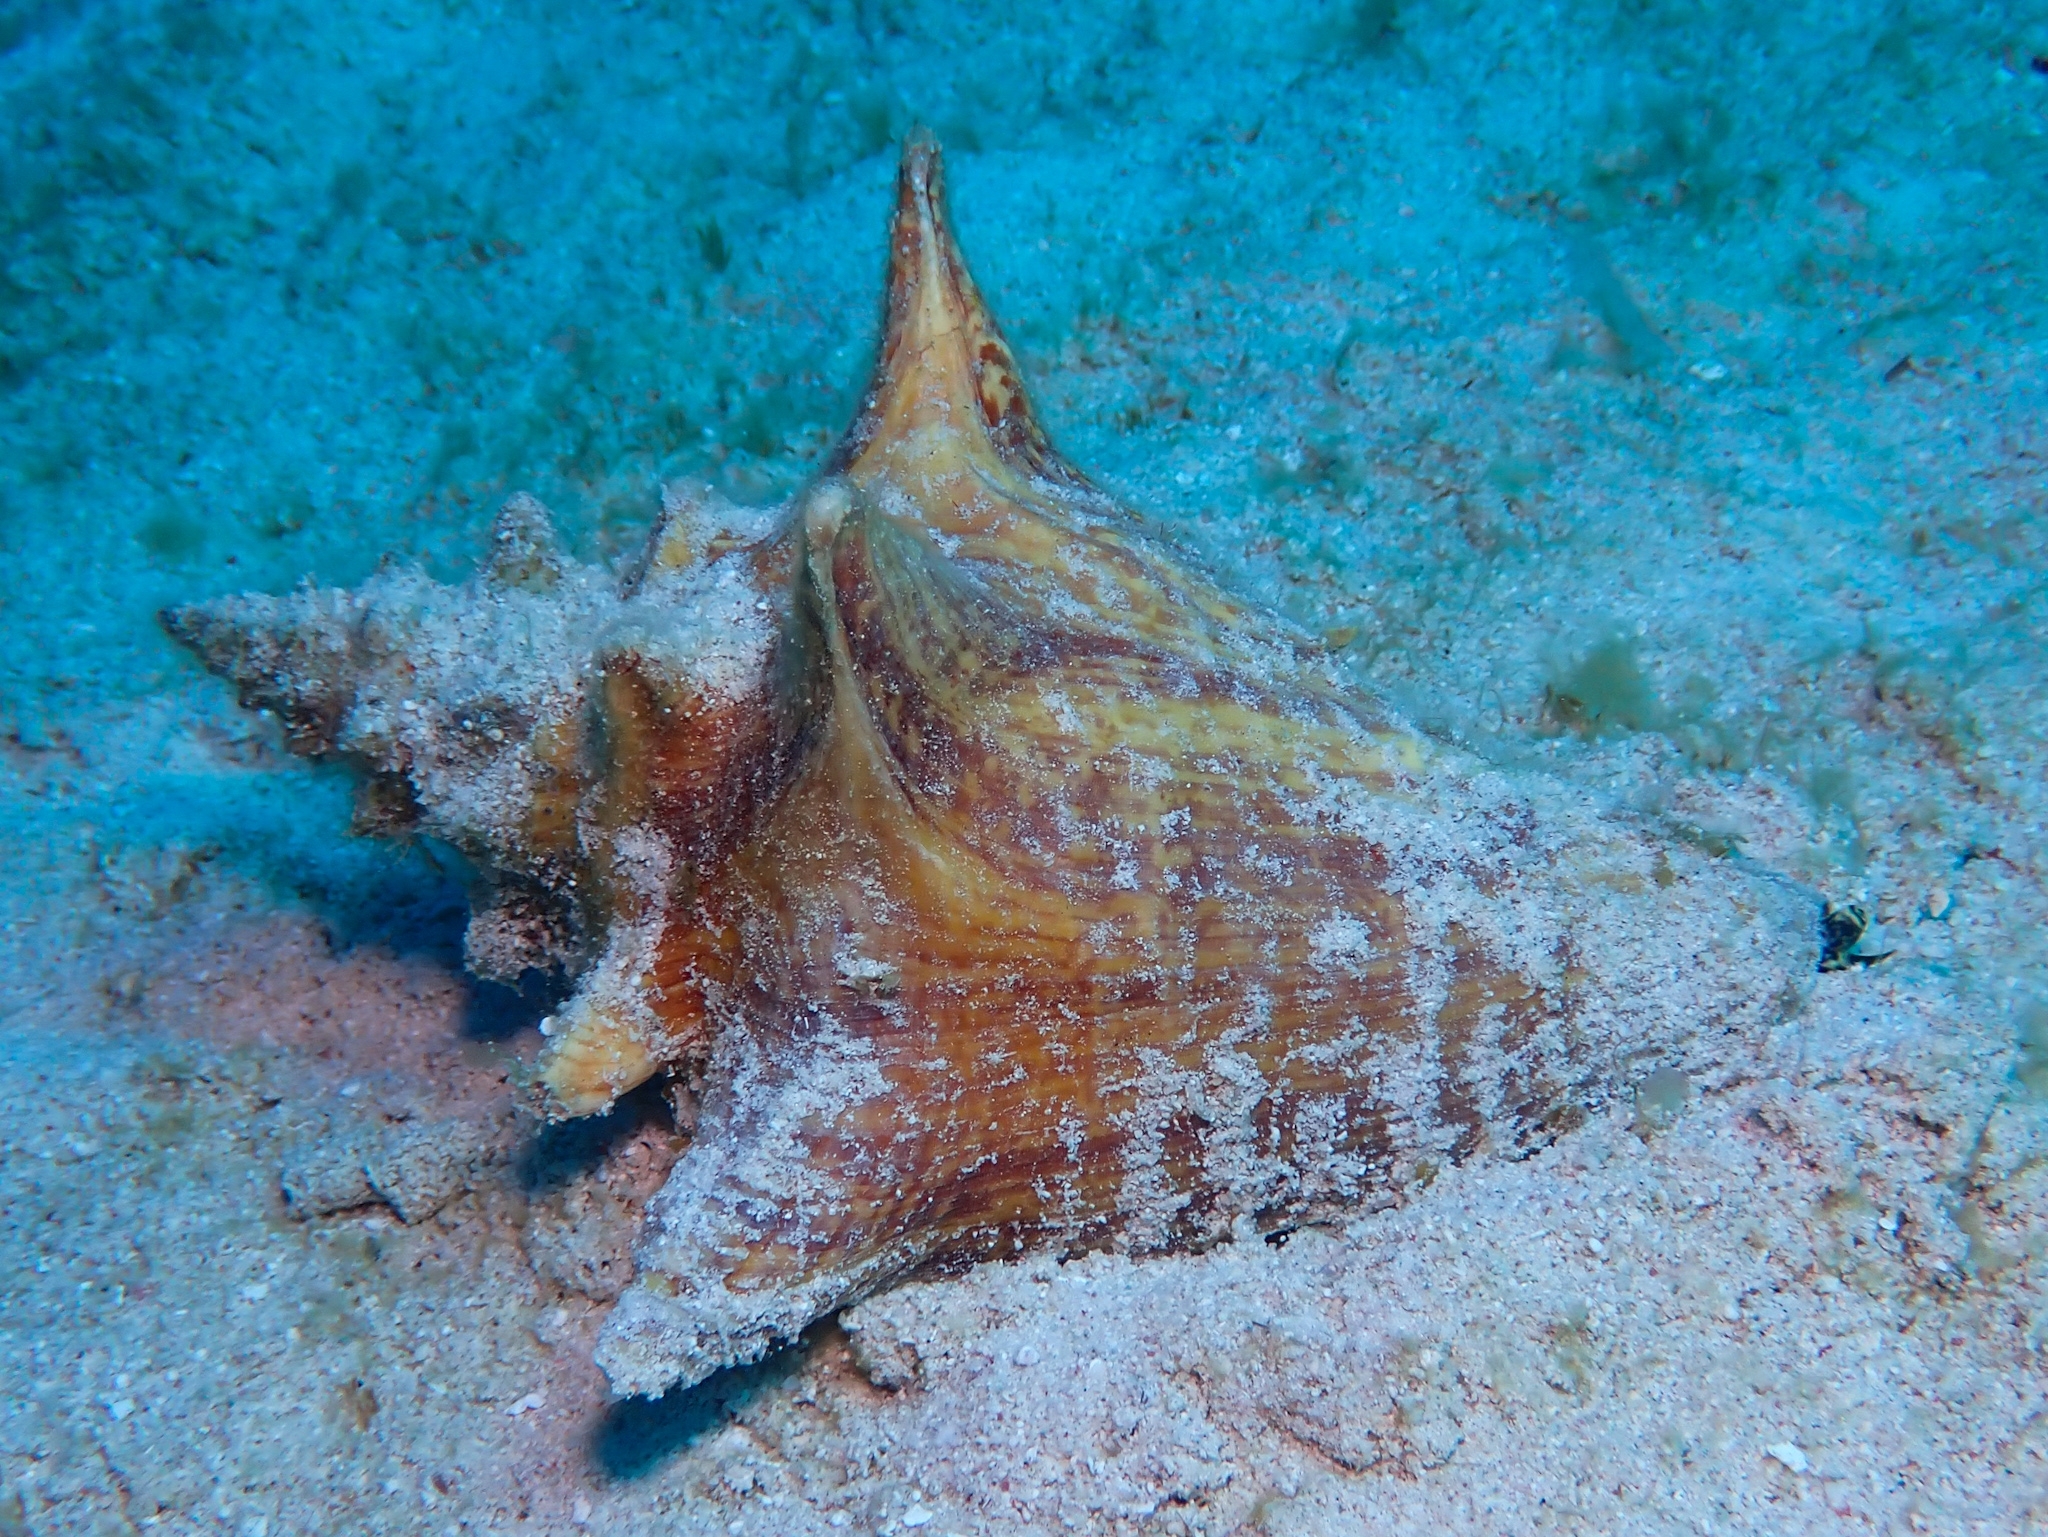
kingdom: Animalia
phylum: Mollusca
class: Gastropoda
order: Littorinimorpha
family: Strombidae
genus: Aliger
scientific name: Aliger gigas
